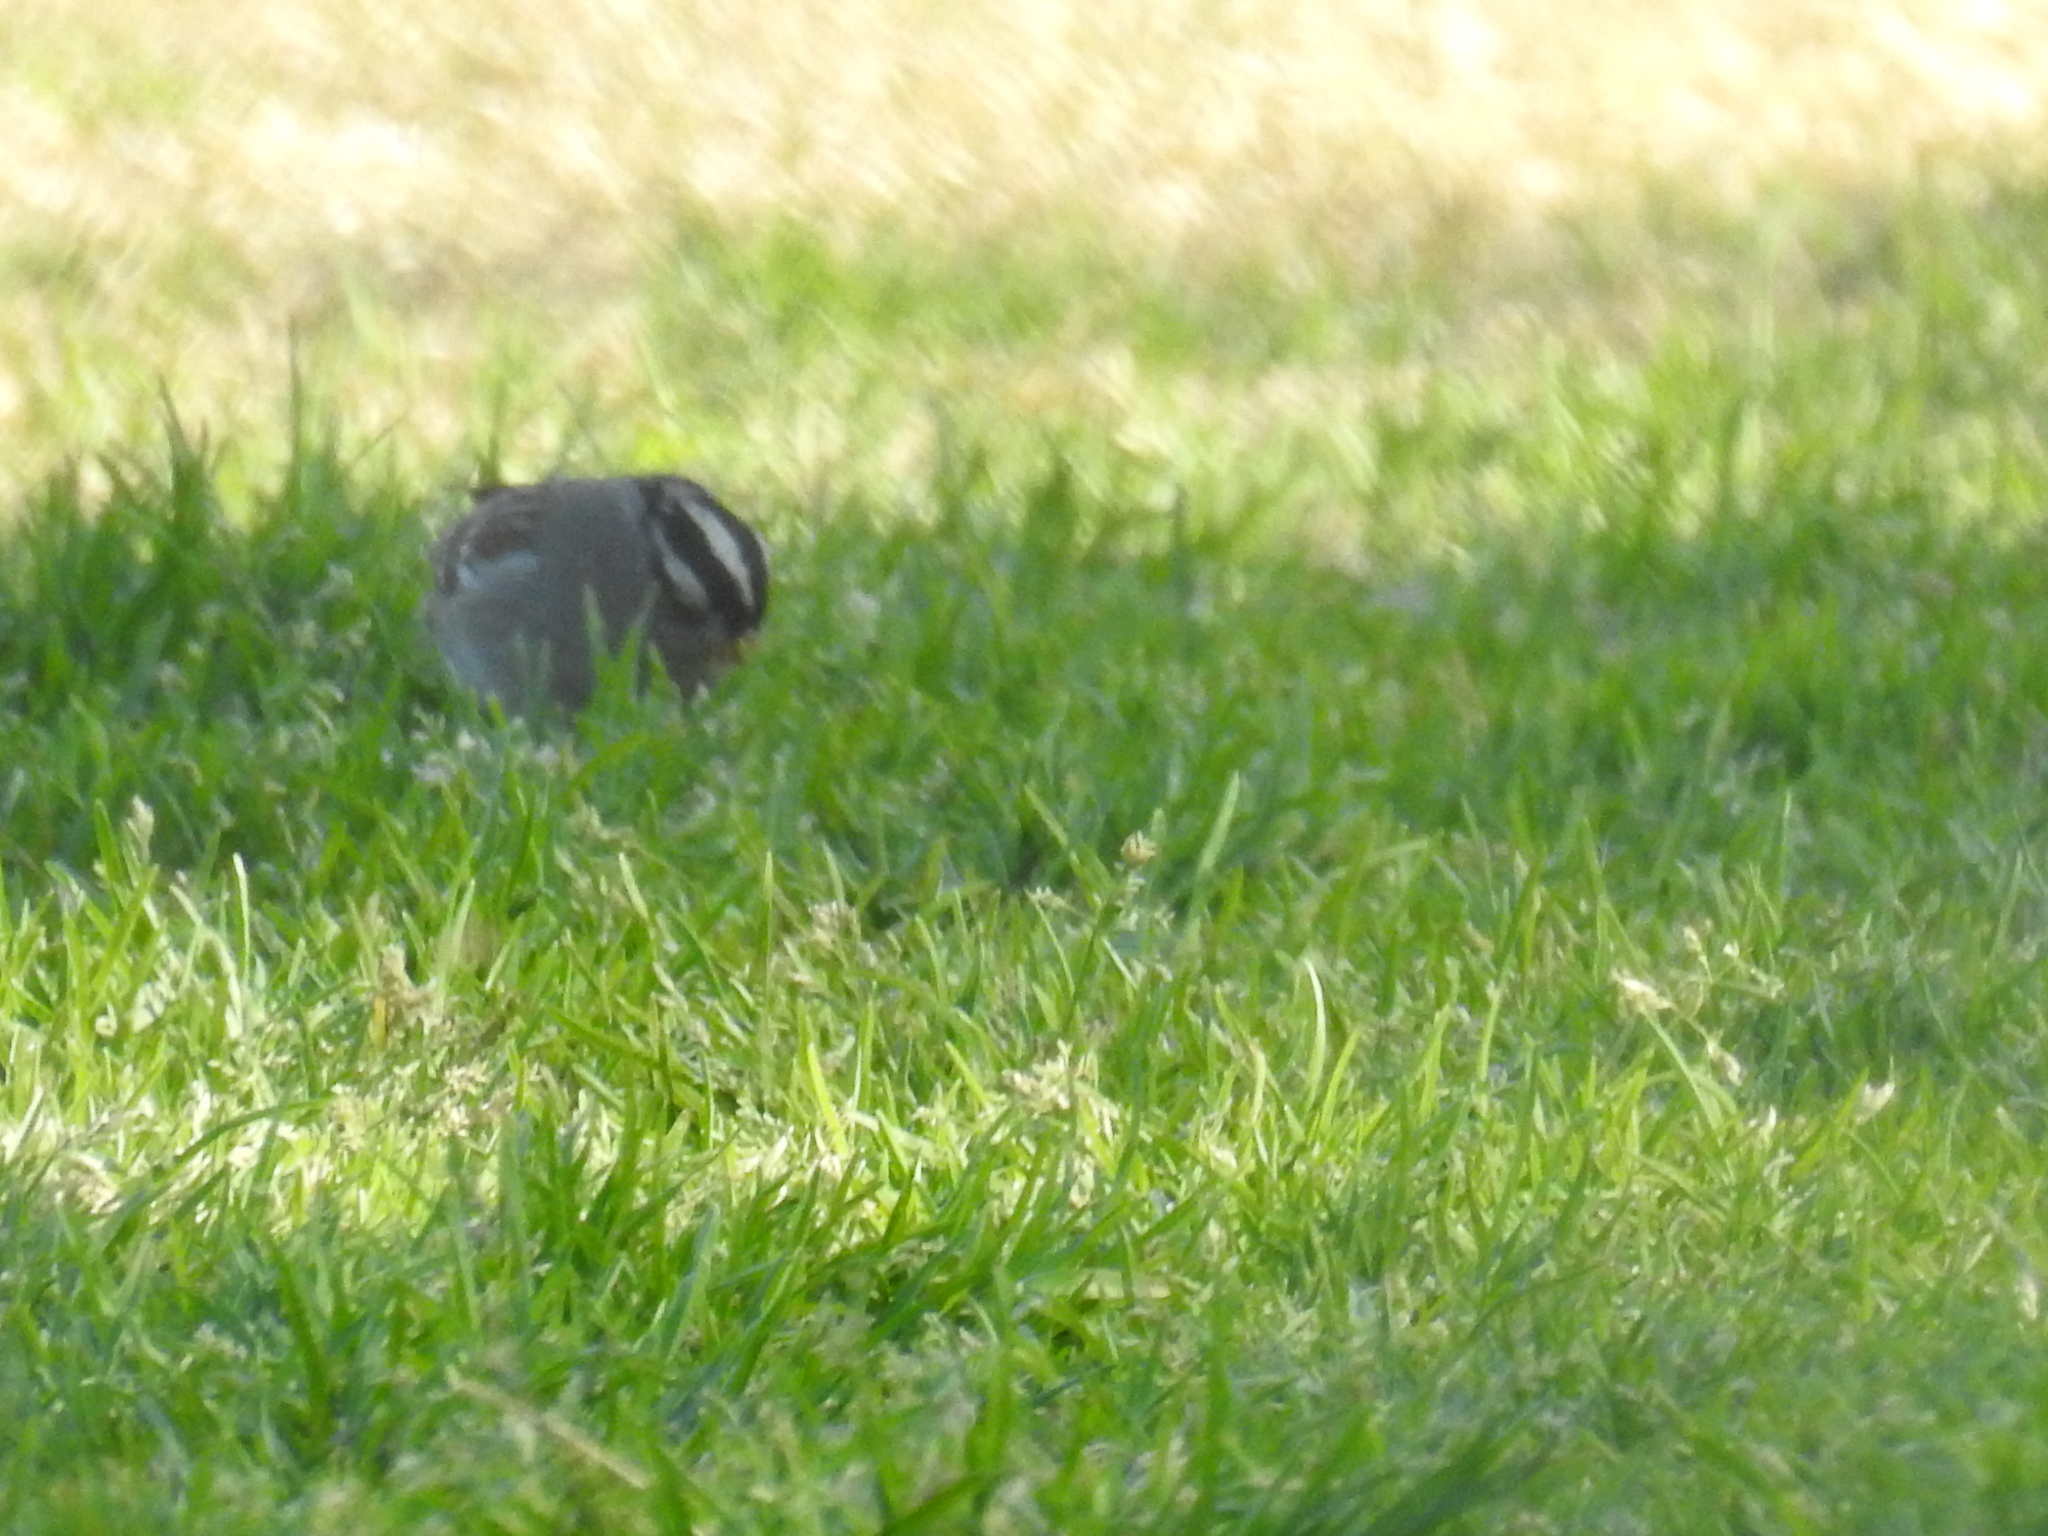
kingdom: Animalia
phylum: Chordata
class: Aves
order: Passeriformes
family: Passerellidae
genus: Zonotrichia
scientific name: Zonotrichia leucophrys
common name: White-crowned sparrow
